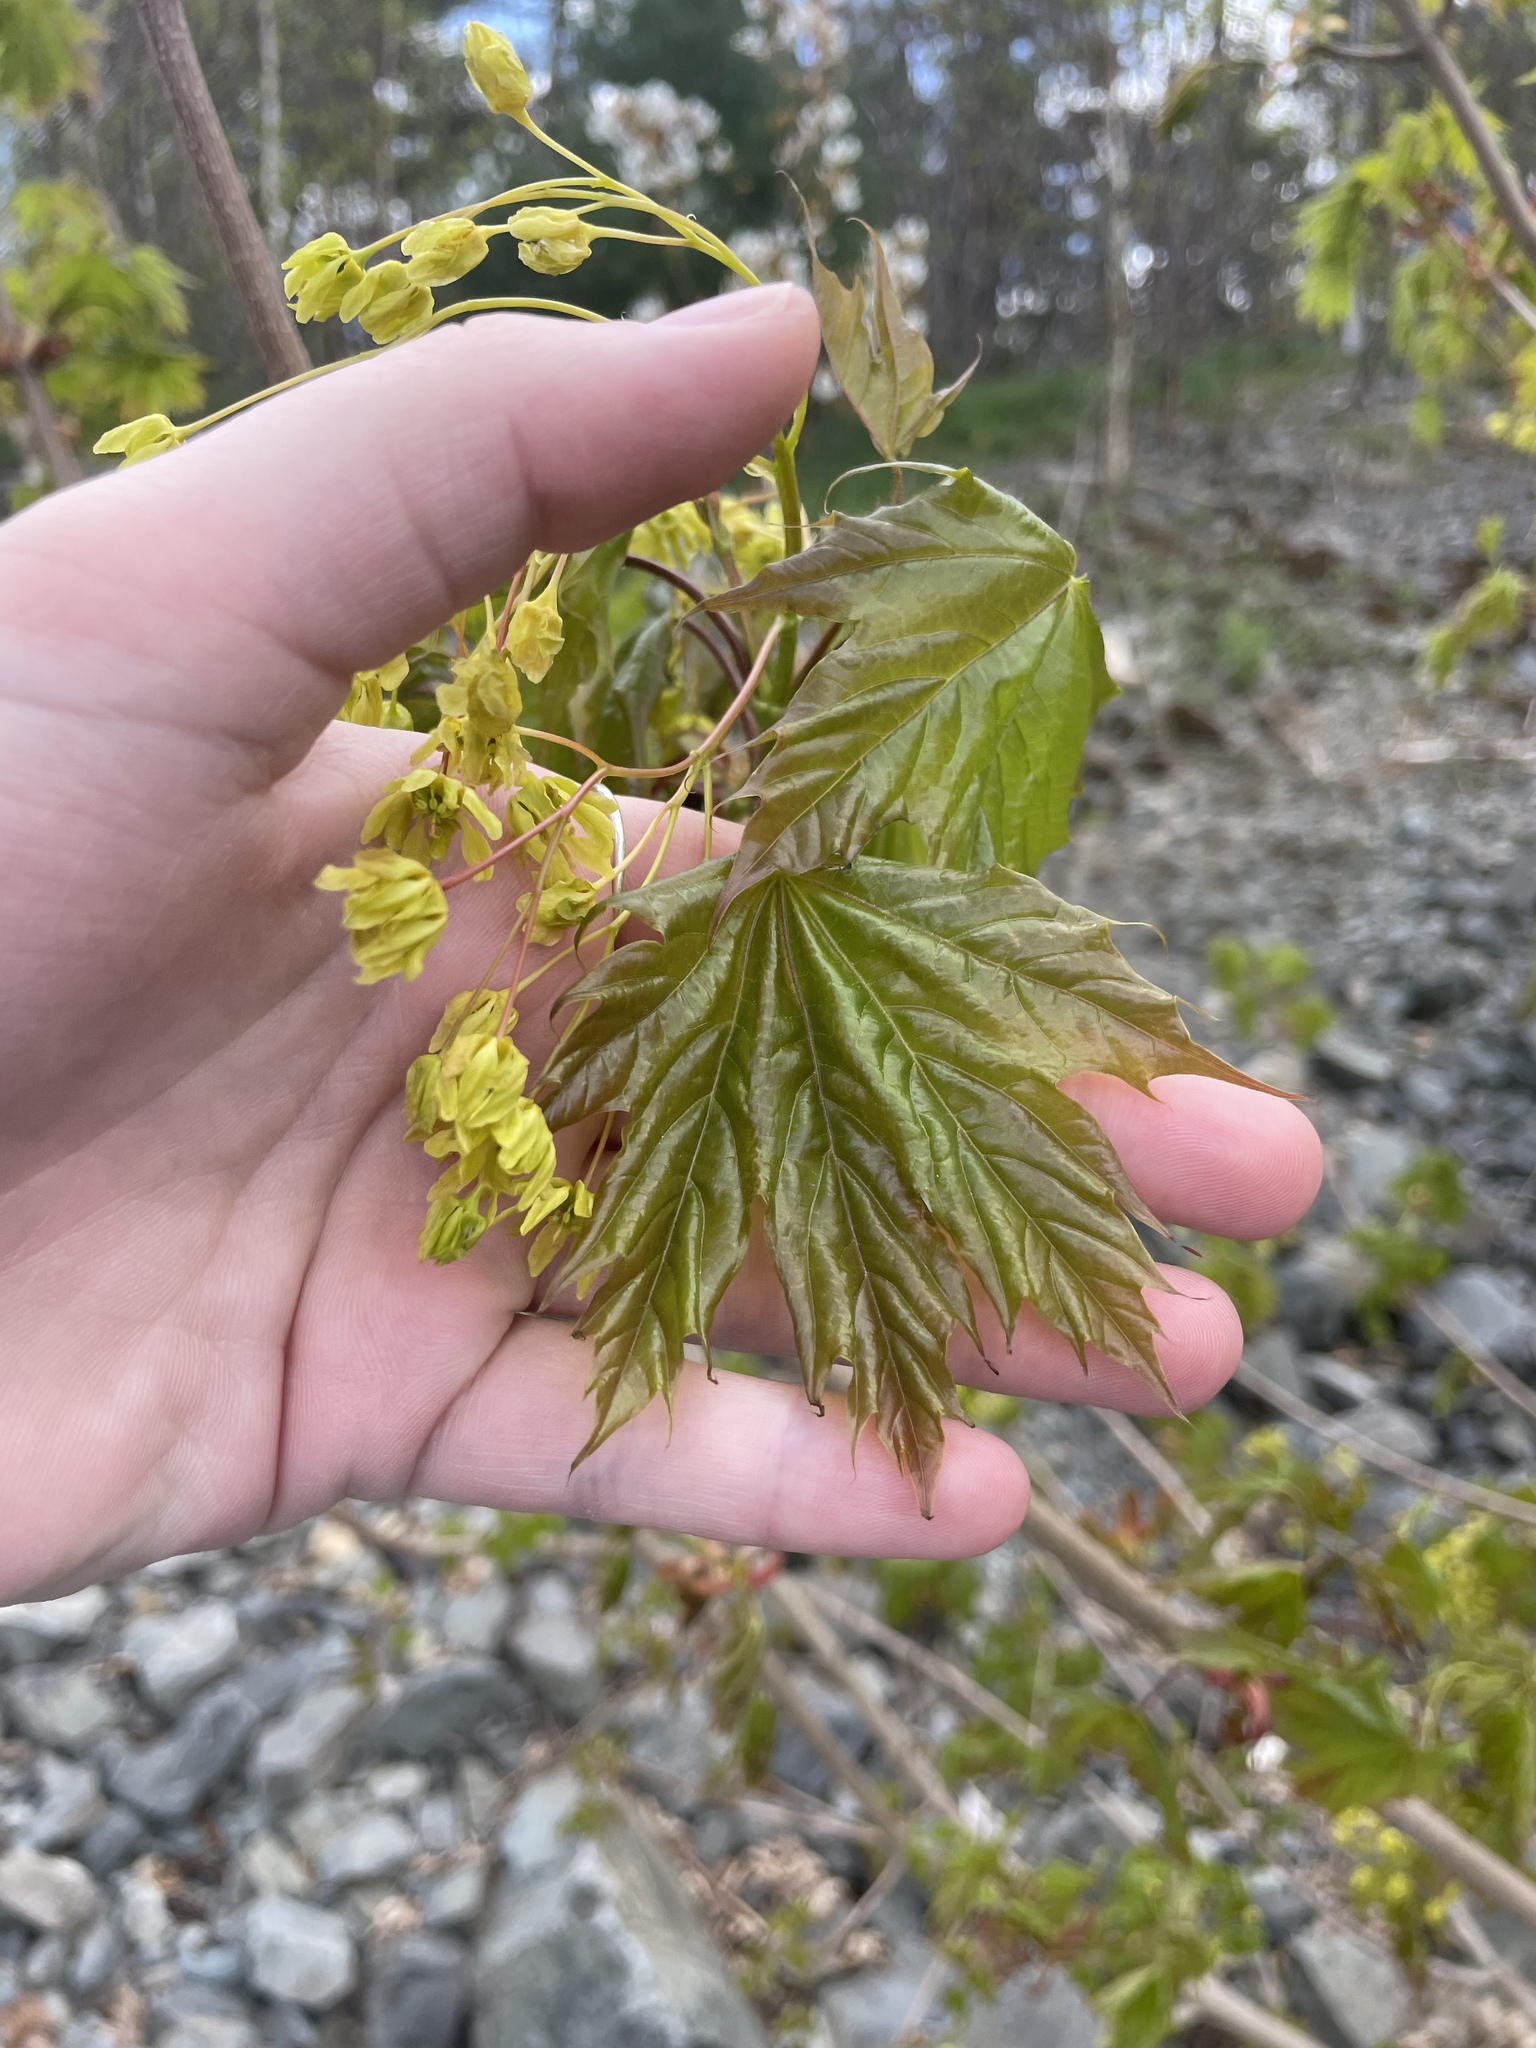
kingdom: Plantae
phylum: Tracheophyta
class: Magnoliopsida
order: Sapindales
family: Sapindaceae
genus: Acer
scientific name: Acer platanoides
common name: Norway maple
